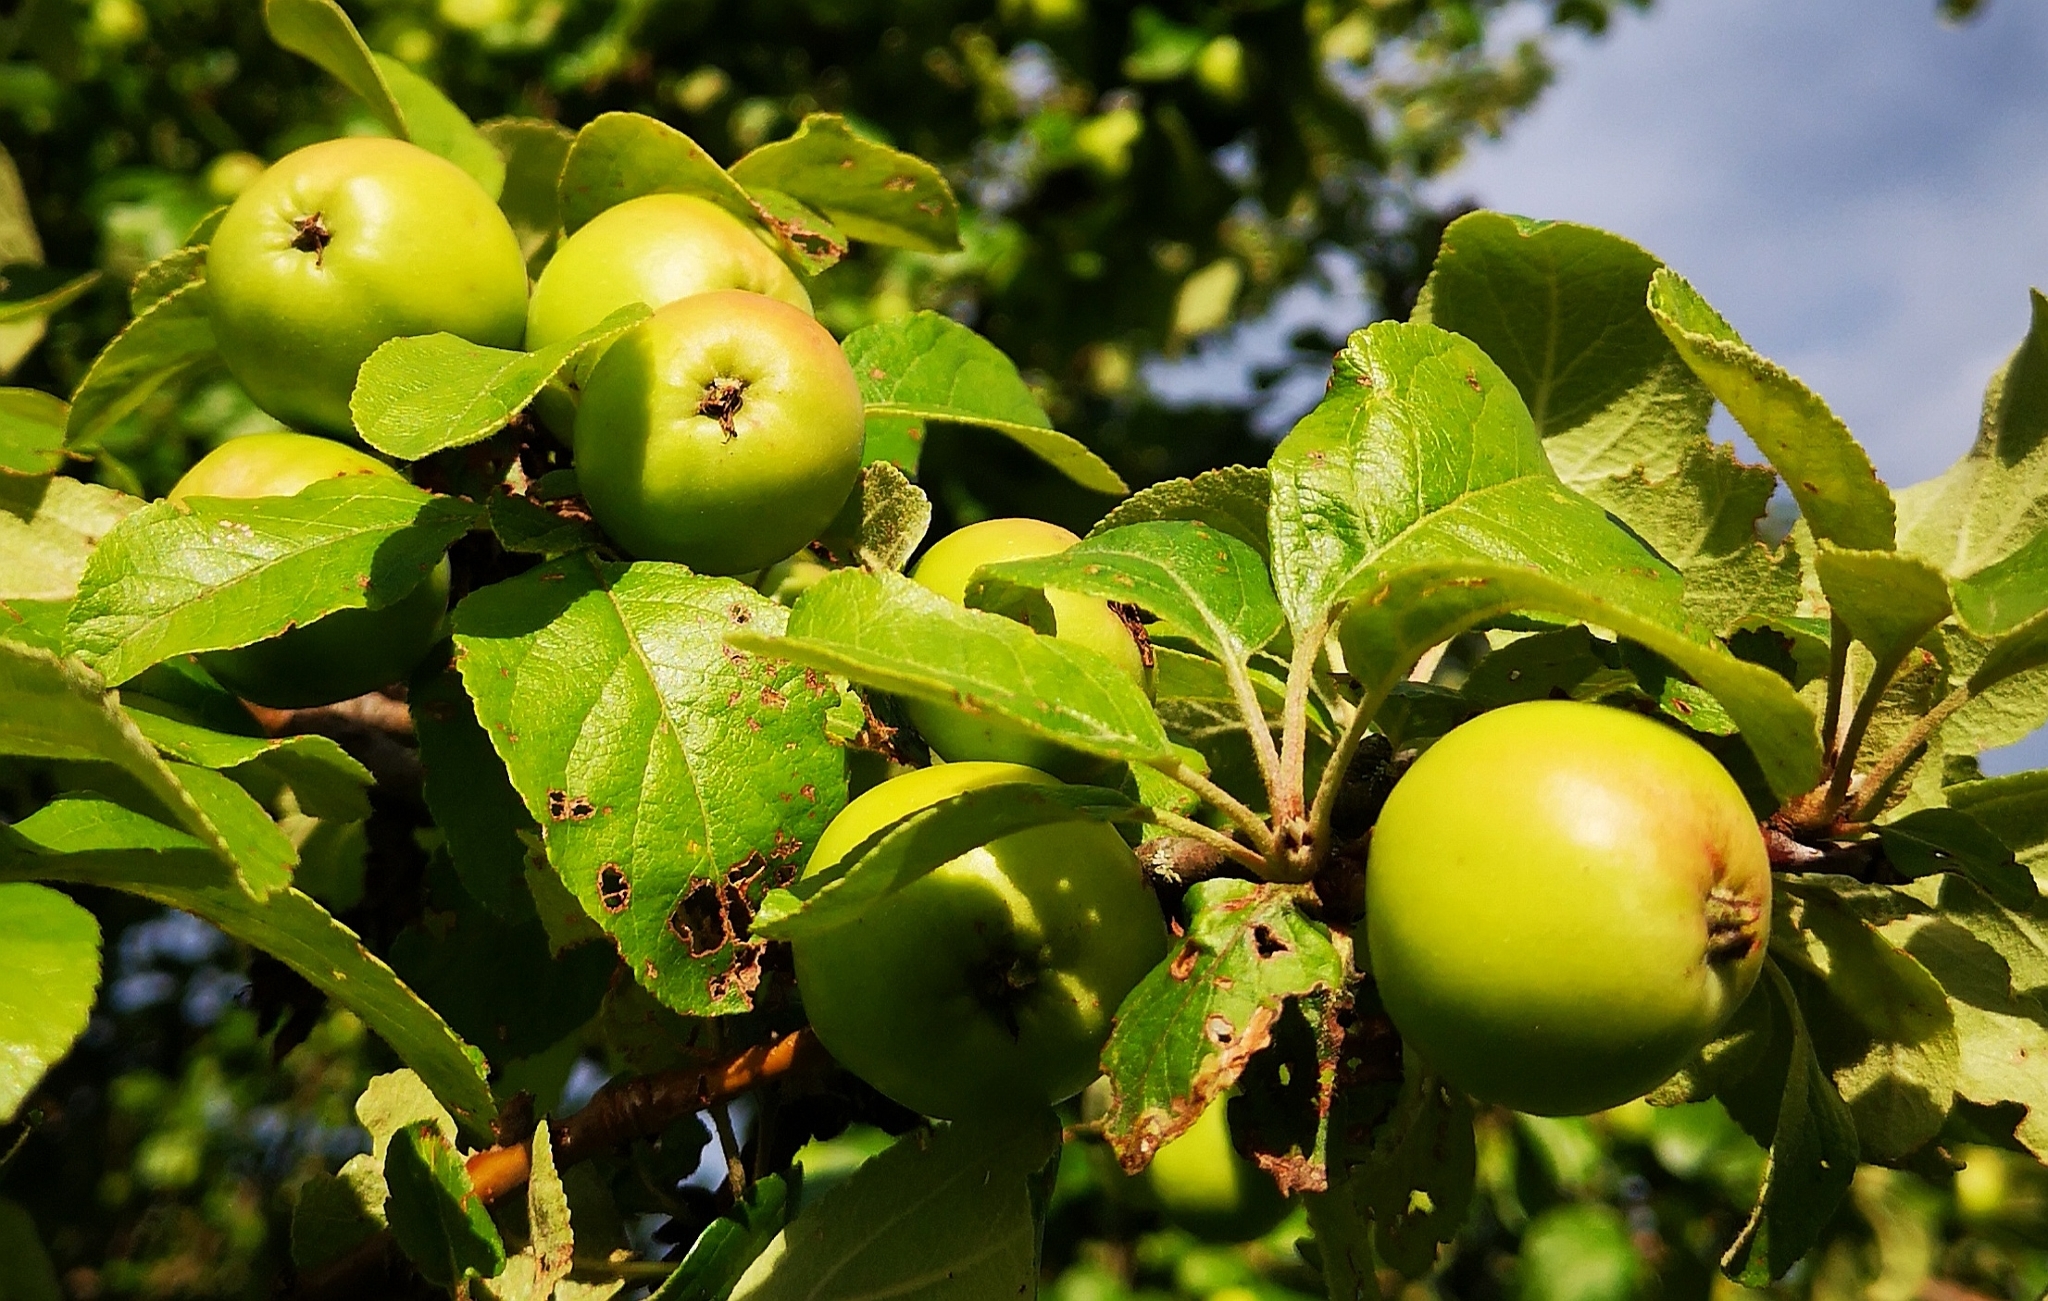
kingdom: Plantae
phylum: Tracheophyta
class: Magnoliopsida
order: Rosales
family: Rosaceae
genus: Malus
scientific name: Malus domestica
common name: Apple
